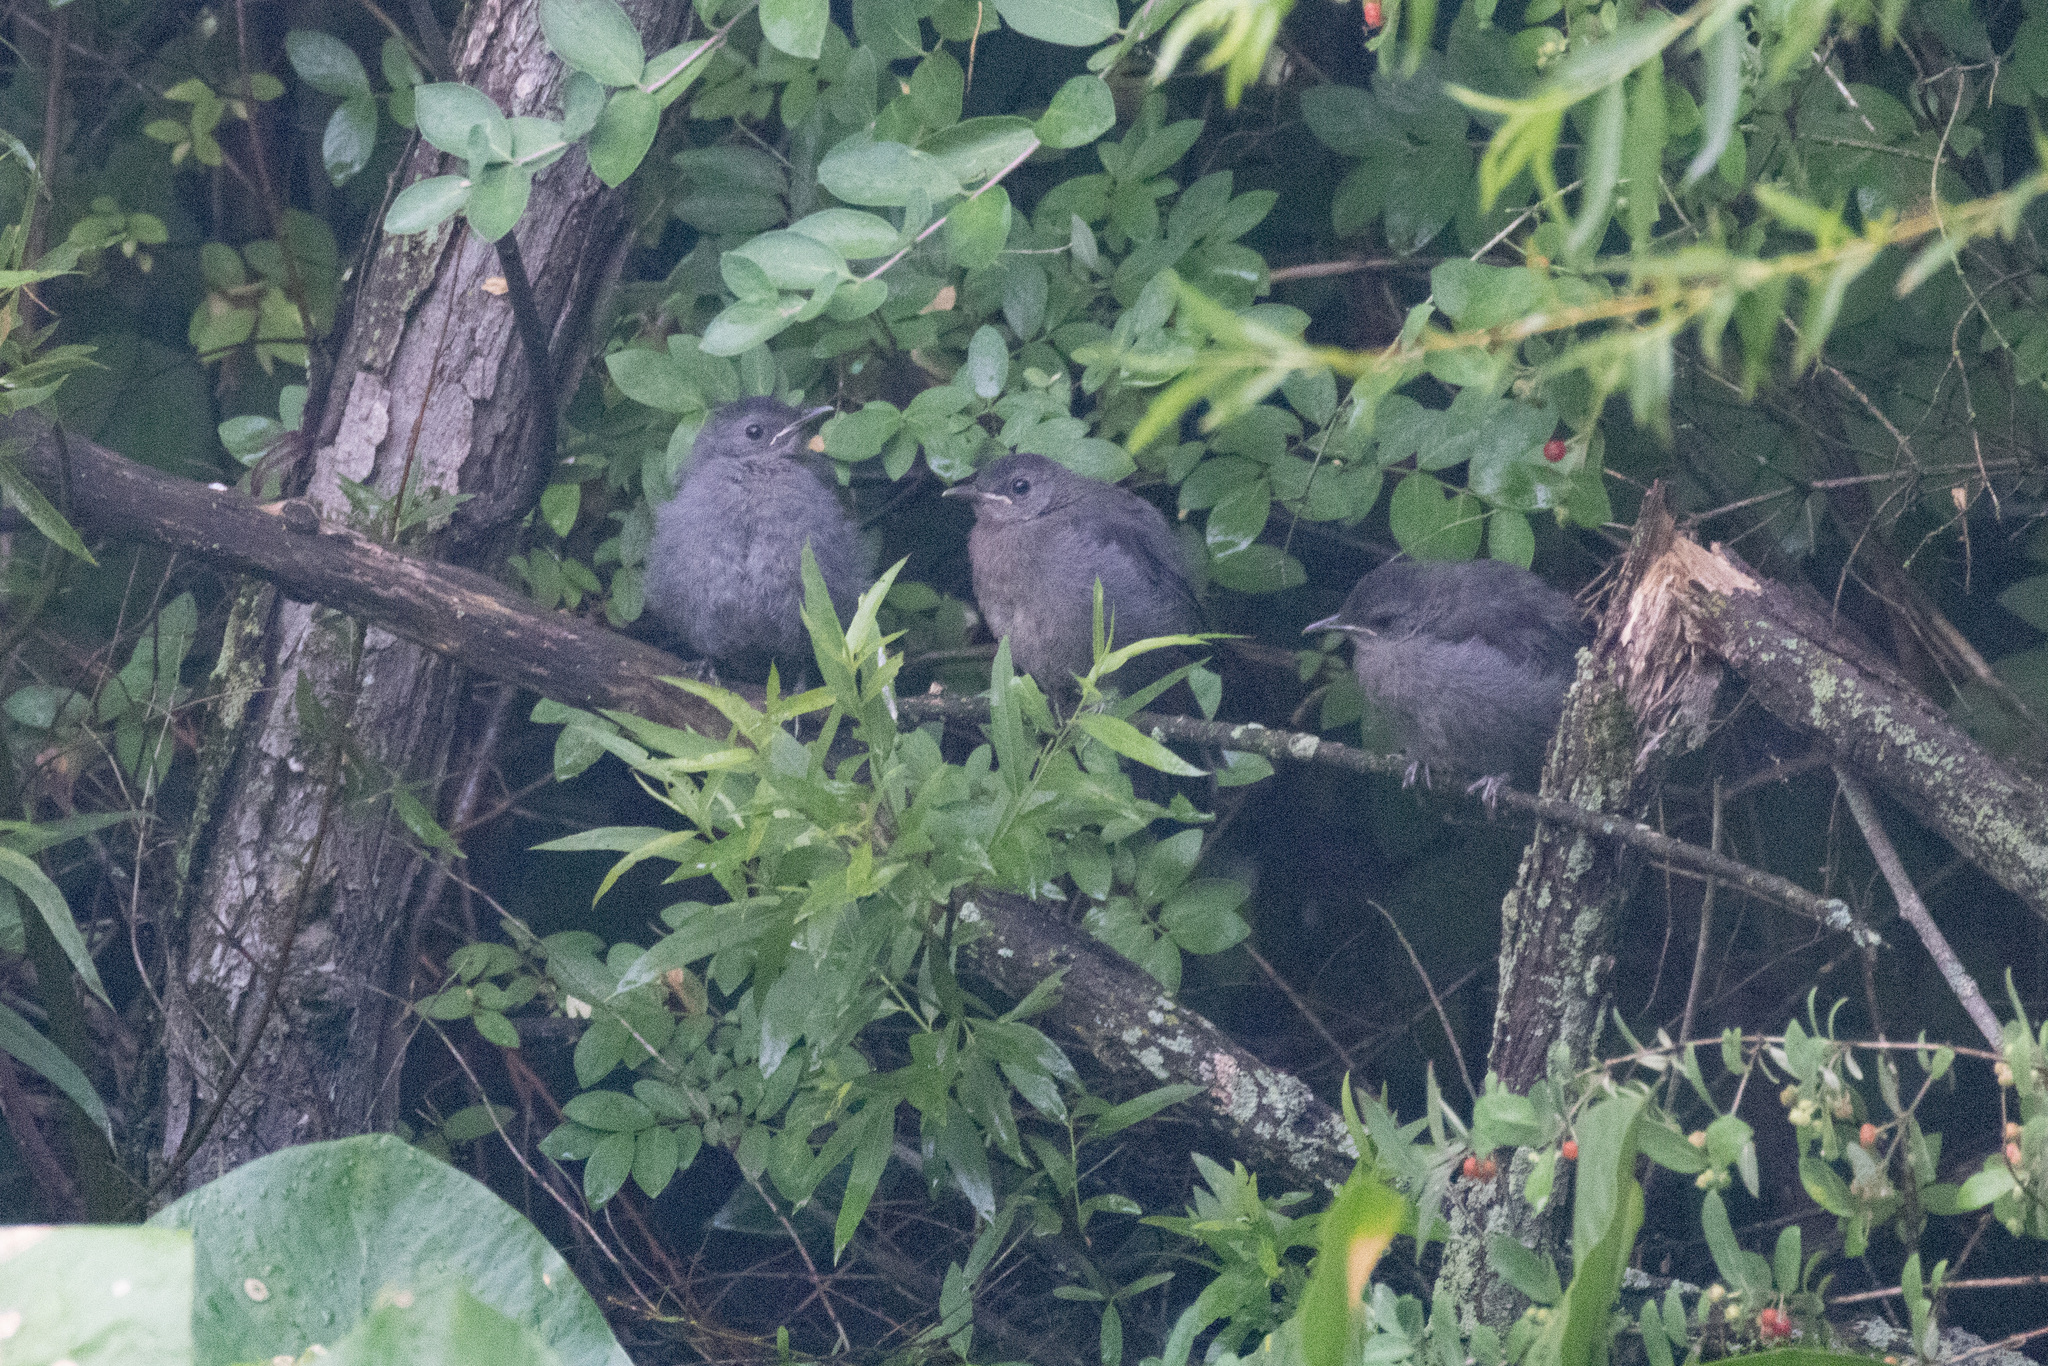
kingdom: Animalia
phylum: Chordata
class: Aves
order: Passeriformes
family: Mimidae
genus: Dumetella
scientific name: Dumetella carolinensis
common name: Gray catbird
